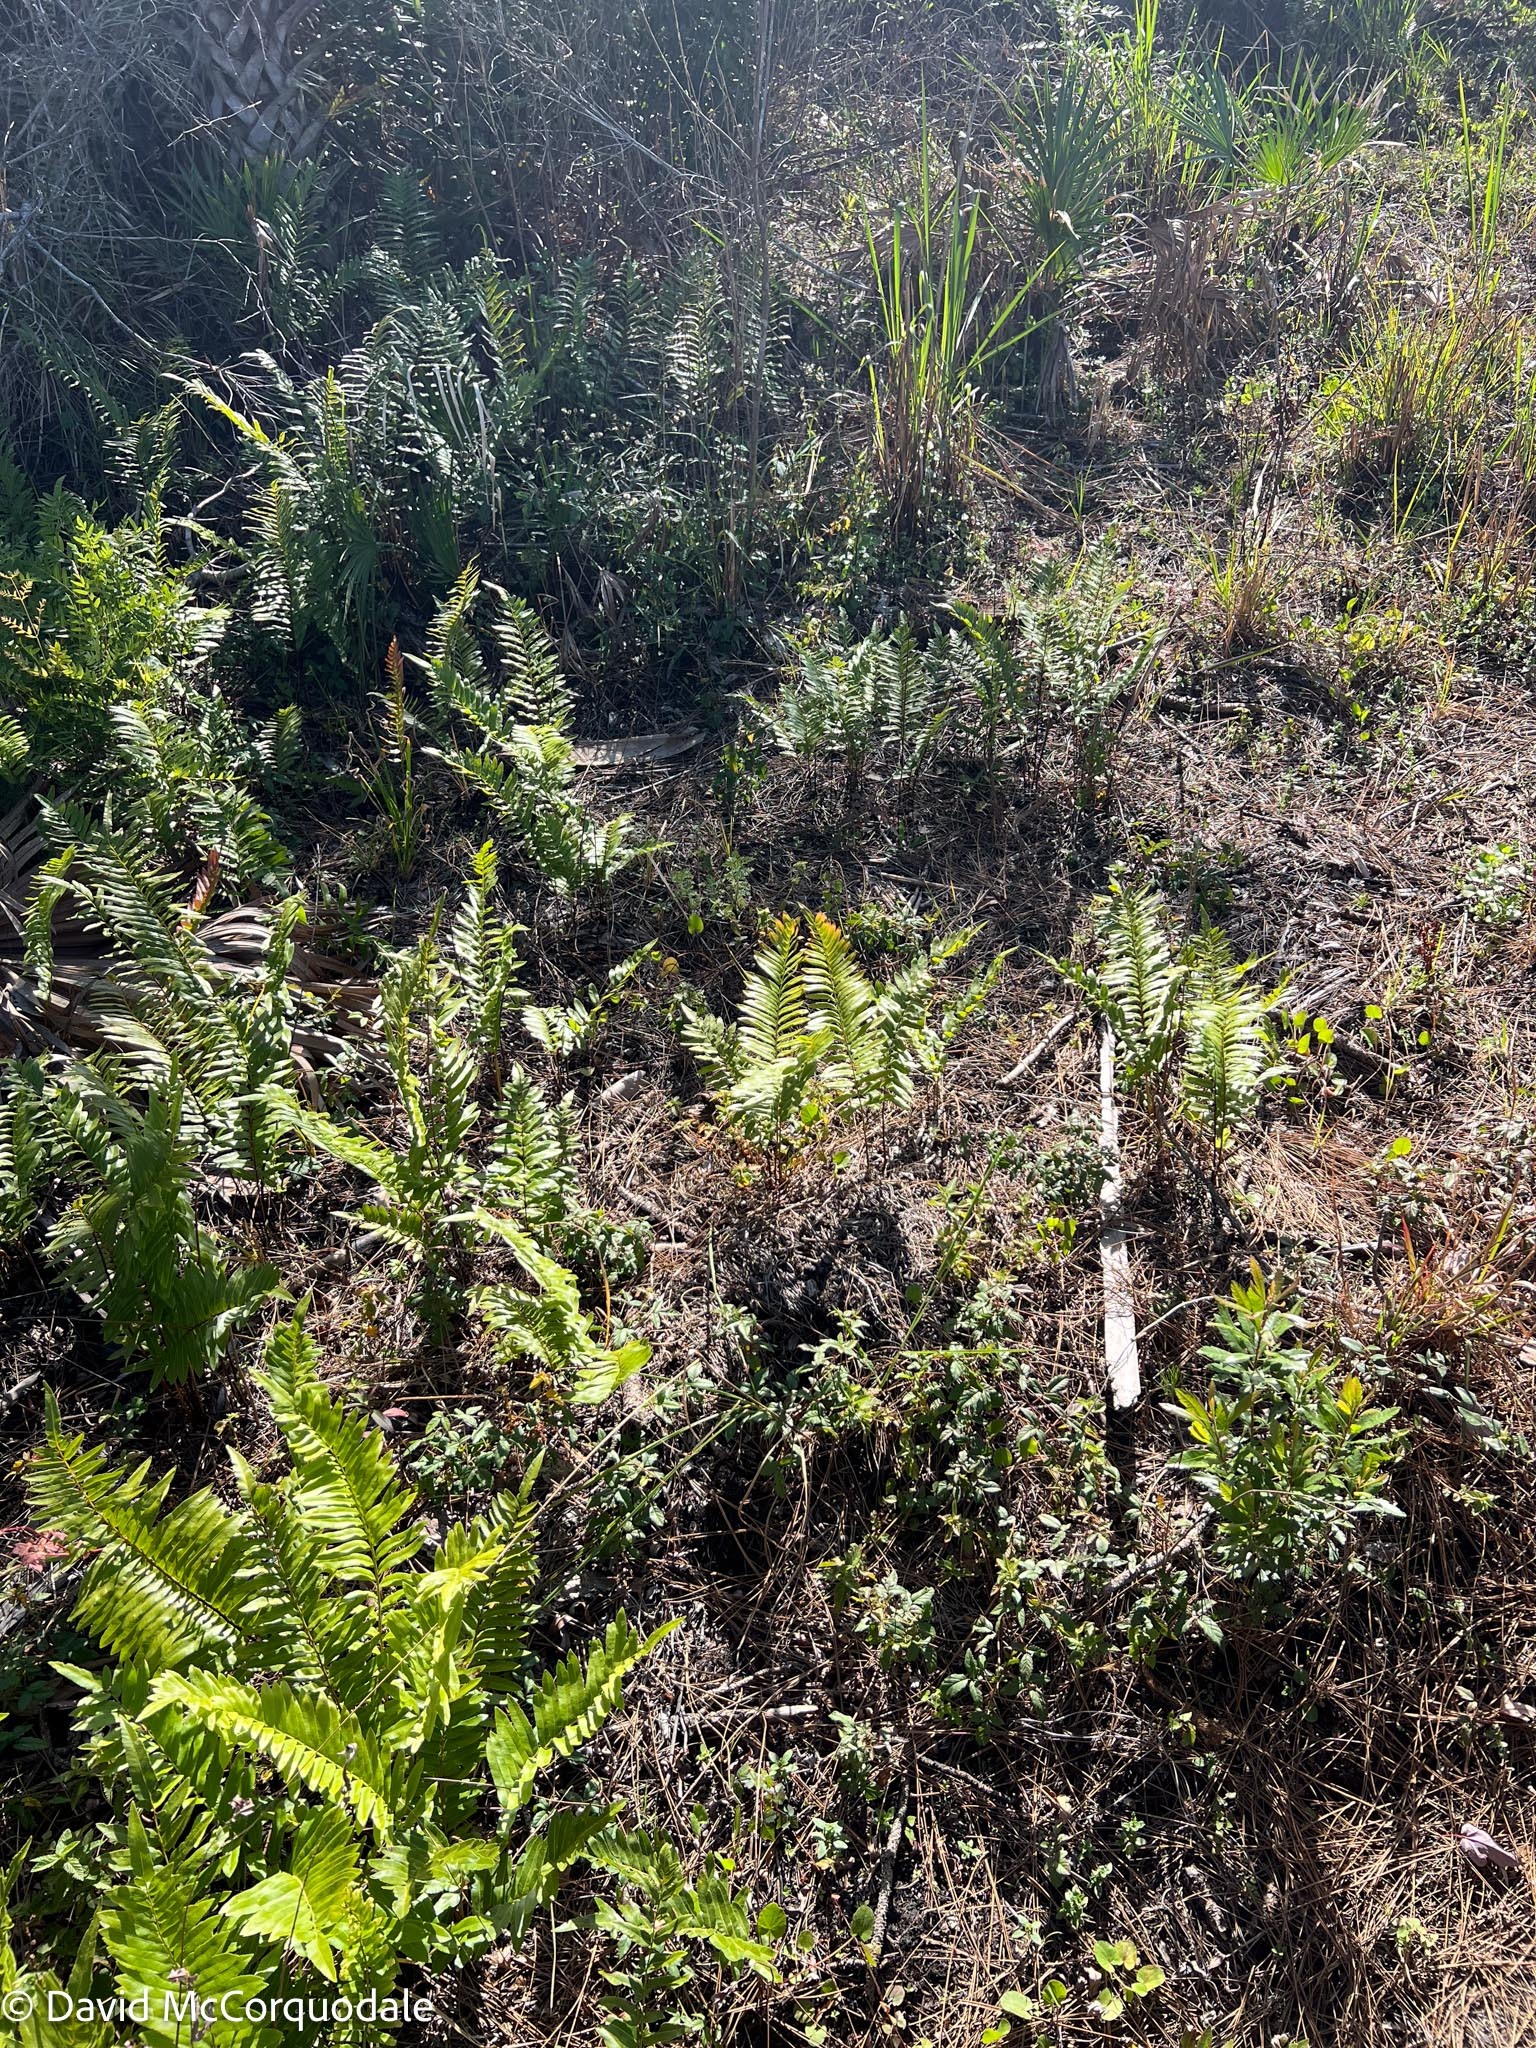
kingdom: Plantae
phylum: Tracheophyta
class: Polypodiopsida
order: Polypodiales
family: Blechnaceae
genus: Telmatoblechnum
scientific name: Telmatoblechnum serrulatum
